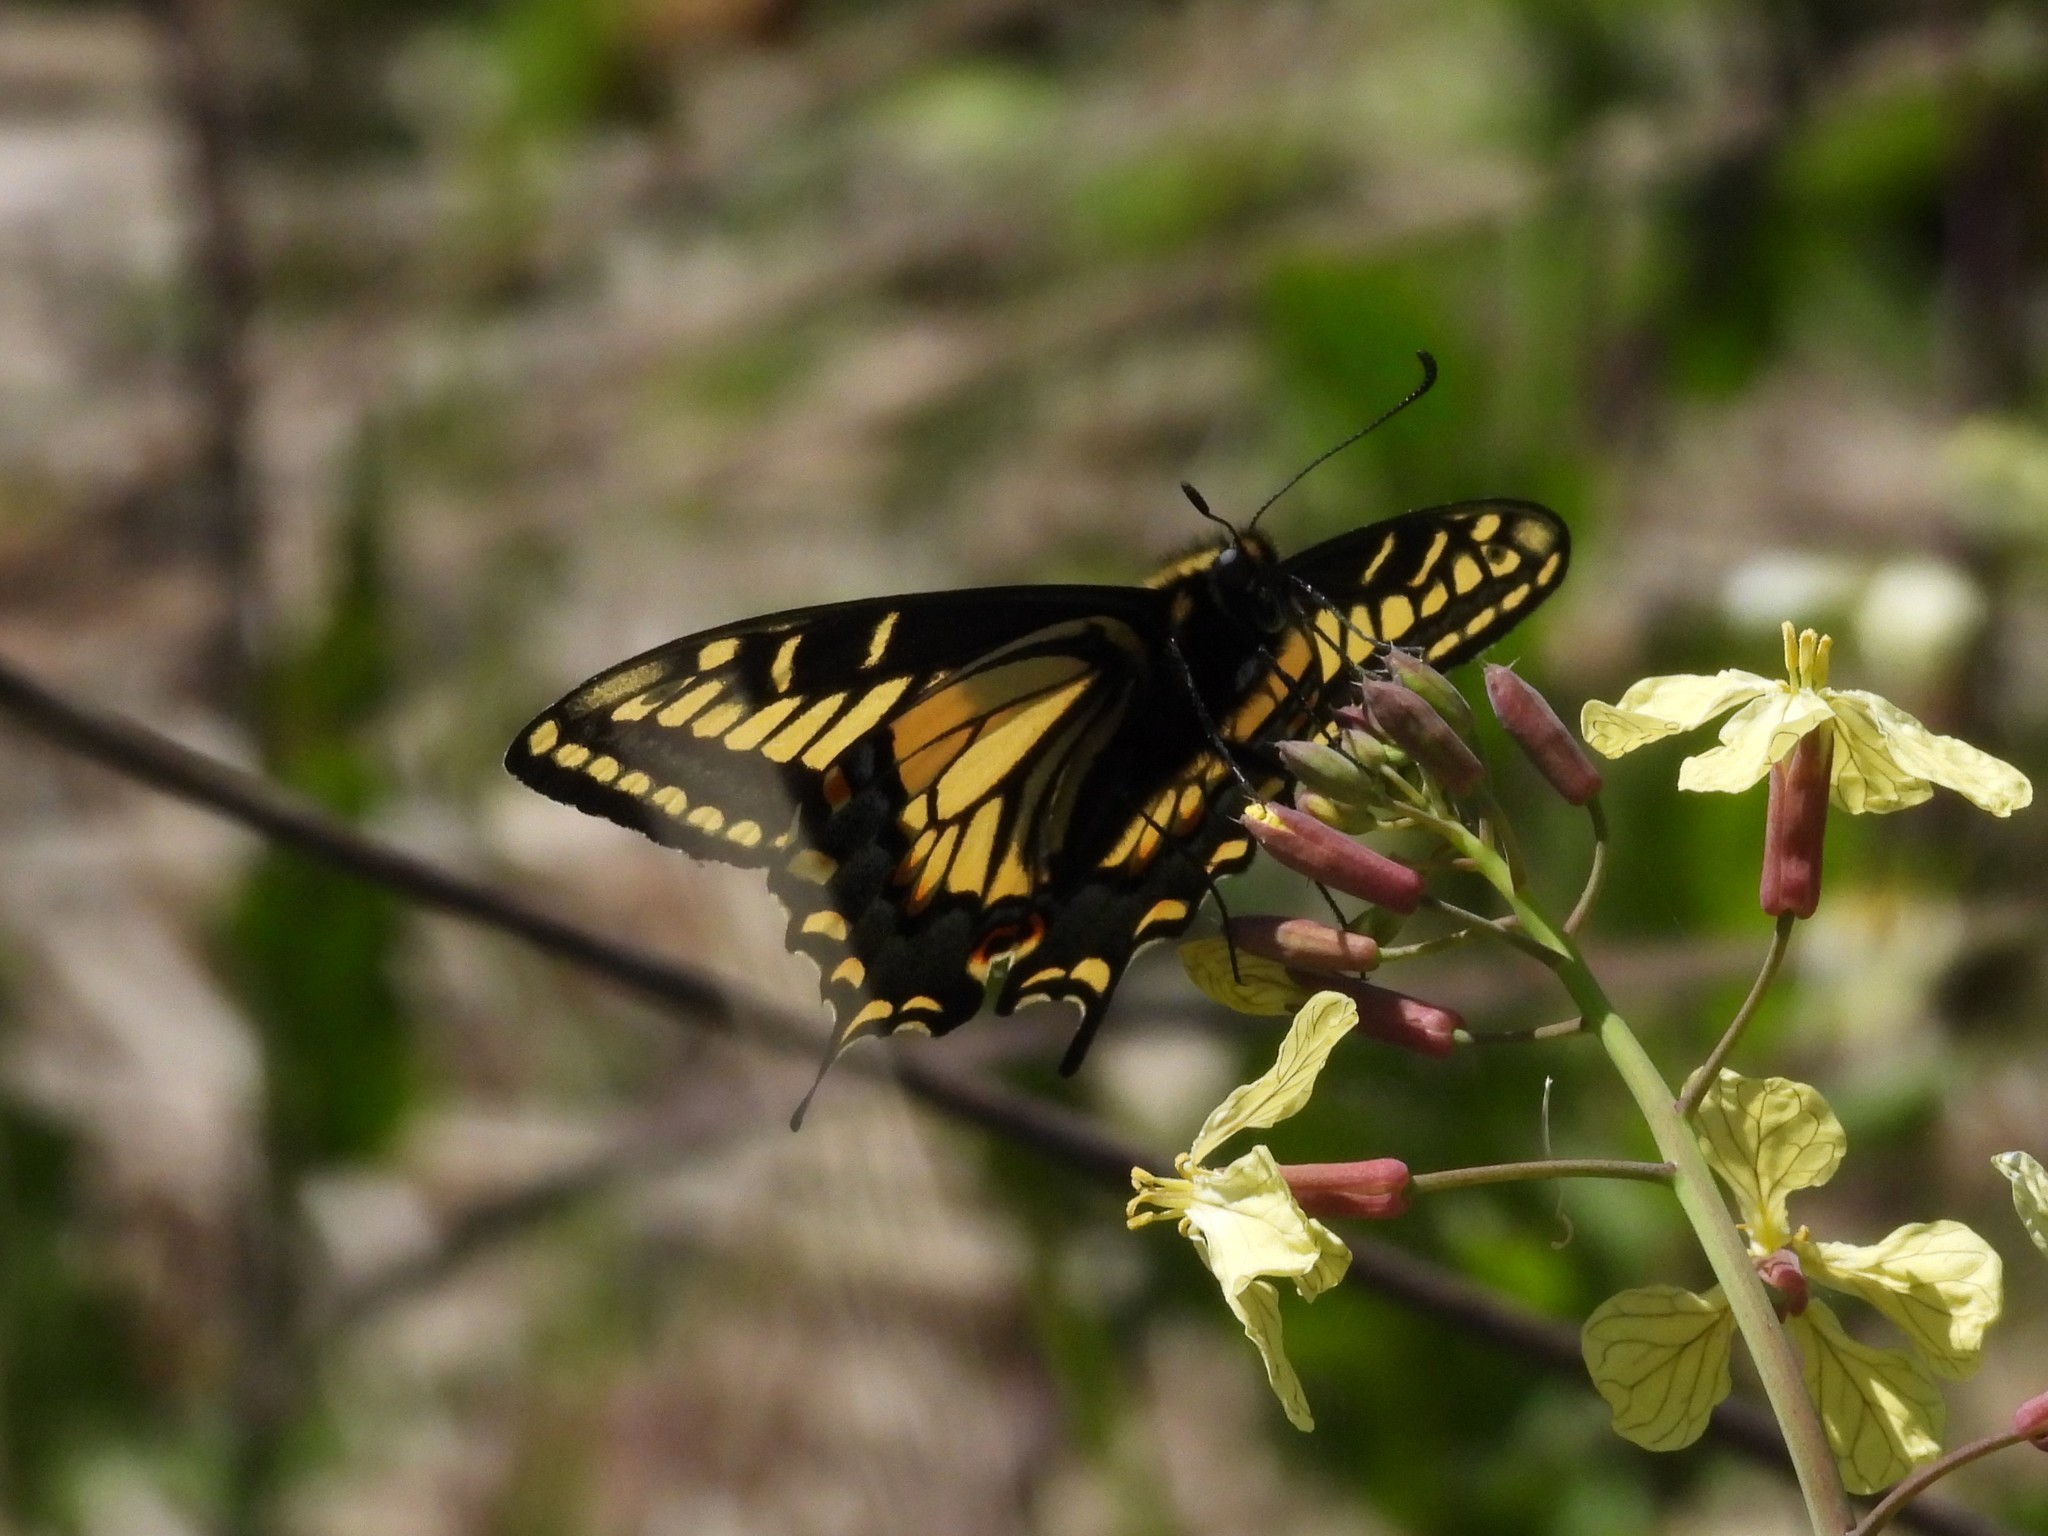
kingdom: Animalia
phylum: Arthropoda
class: Insecta
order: Lepidoptera
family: Papilionidae
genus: Papilio
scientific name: Papilio zelicaon
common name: Anise swallowtail
